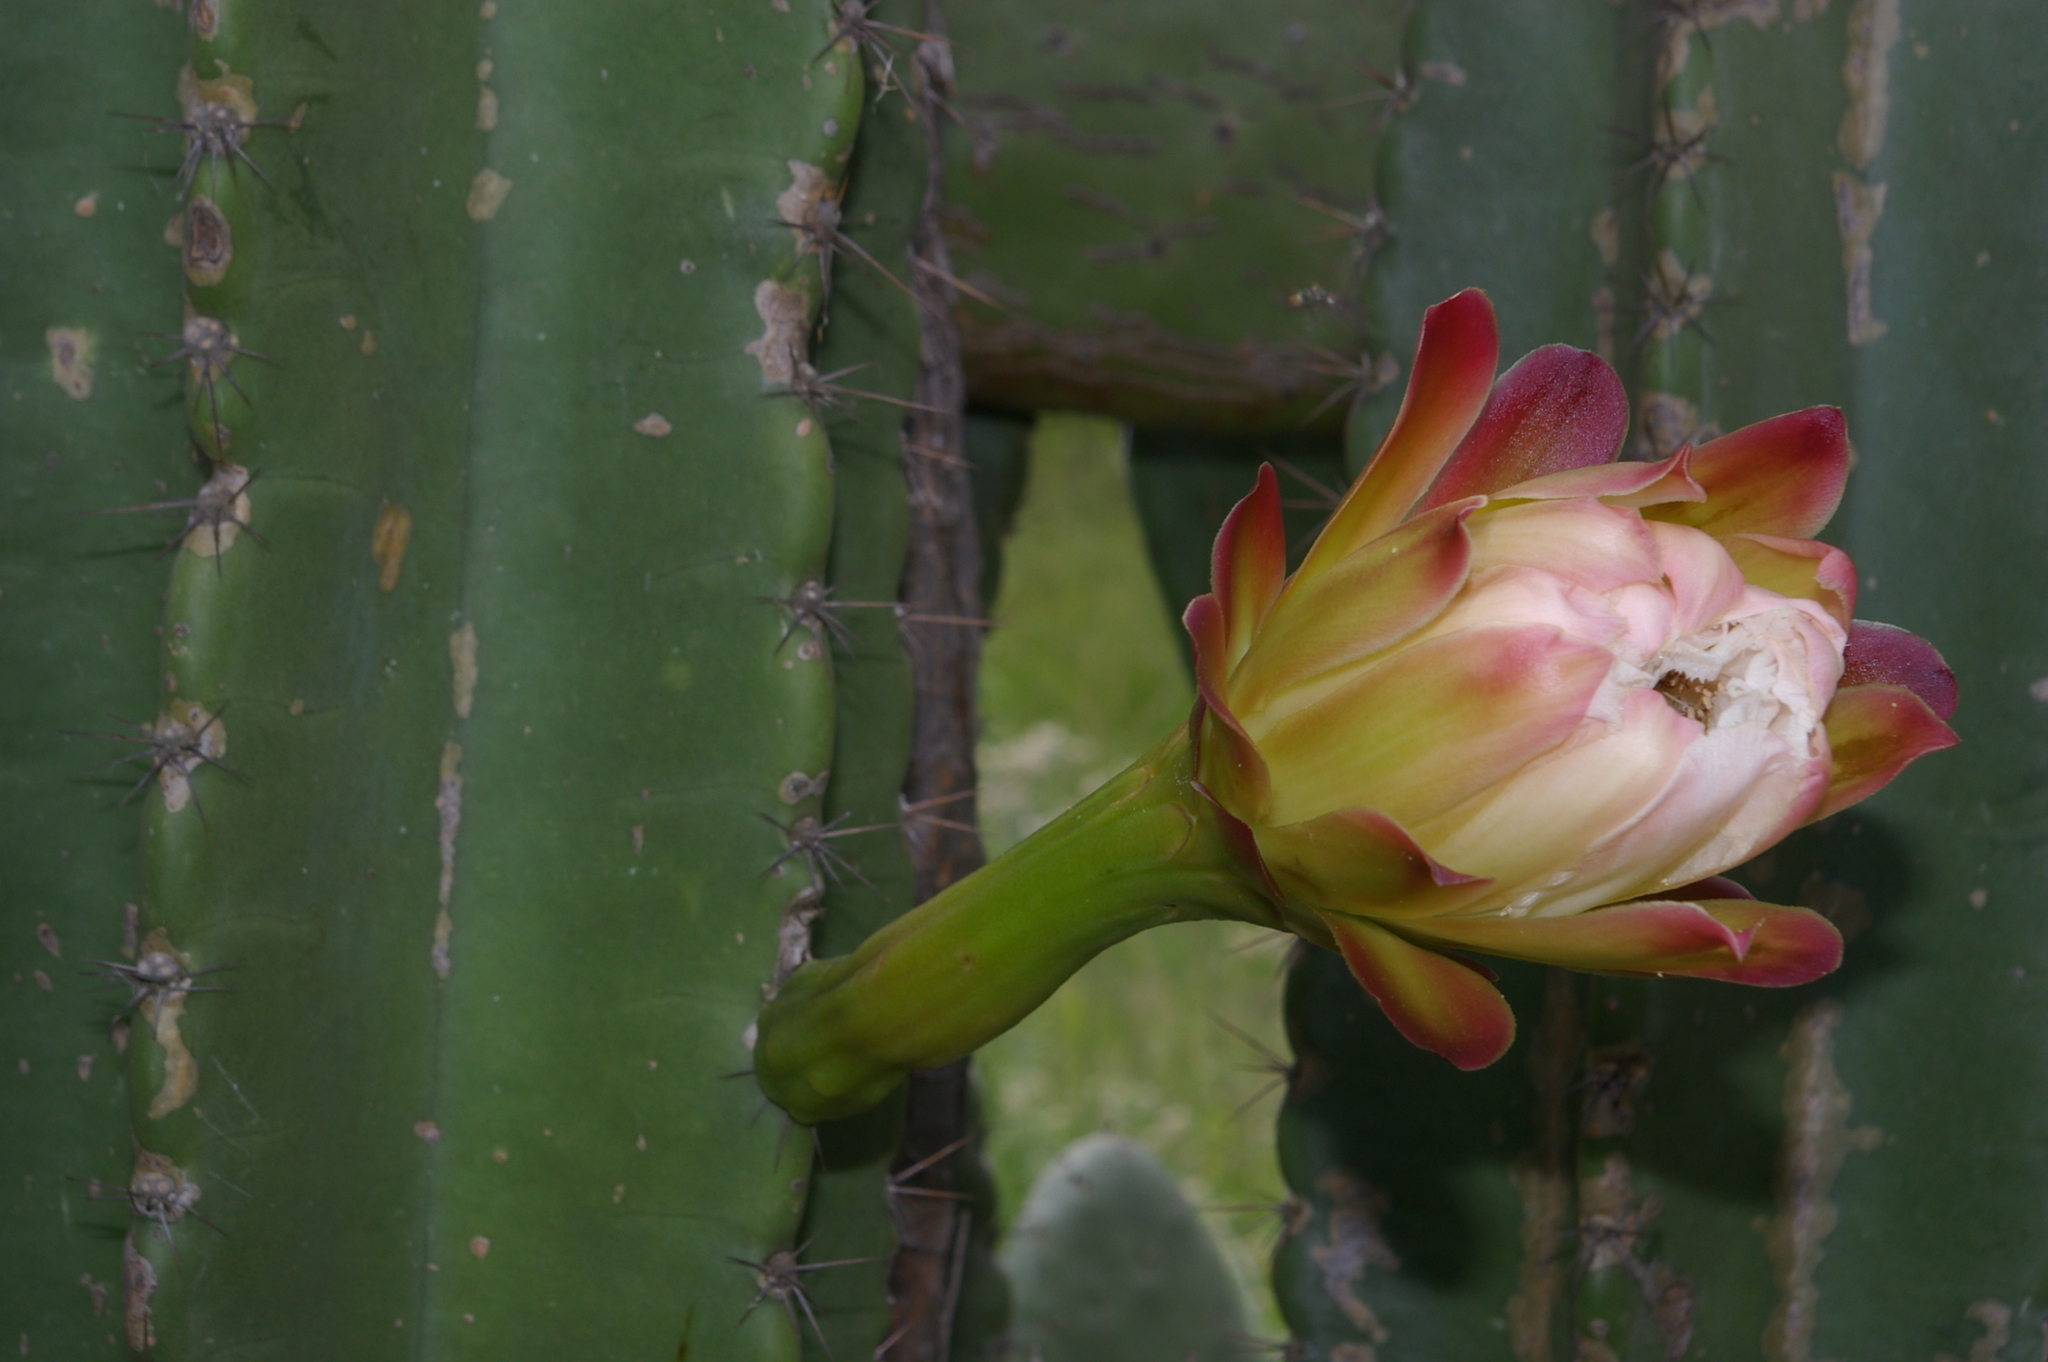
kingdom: Plantae
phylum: Tracheophyta
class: Magnoliopsida
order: Caryophyllales
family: Cactaceae
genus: Cereus
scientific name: Cereus jamacaru
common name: Queen-of-the-night
